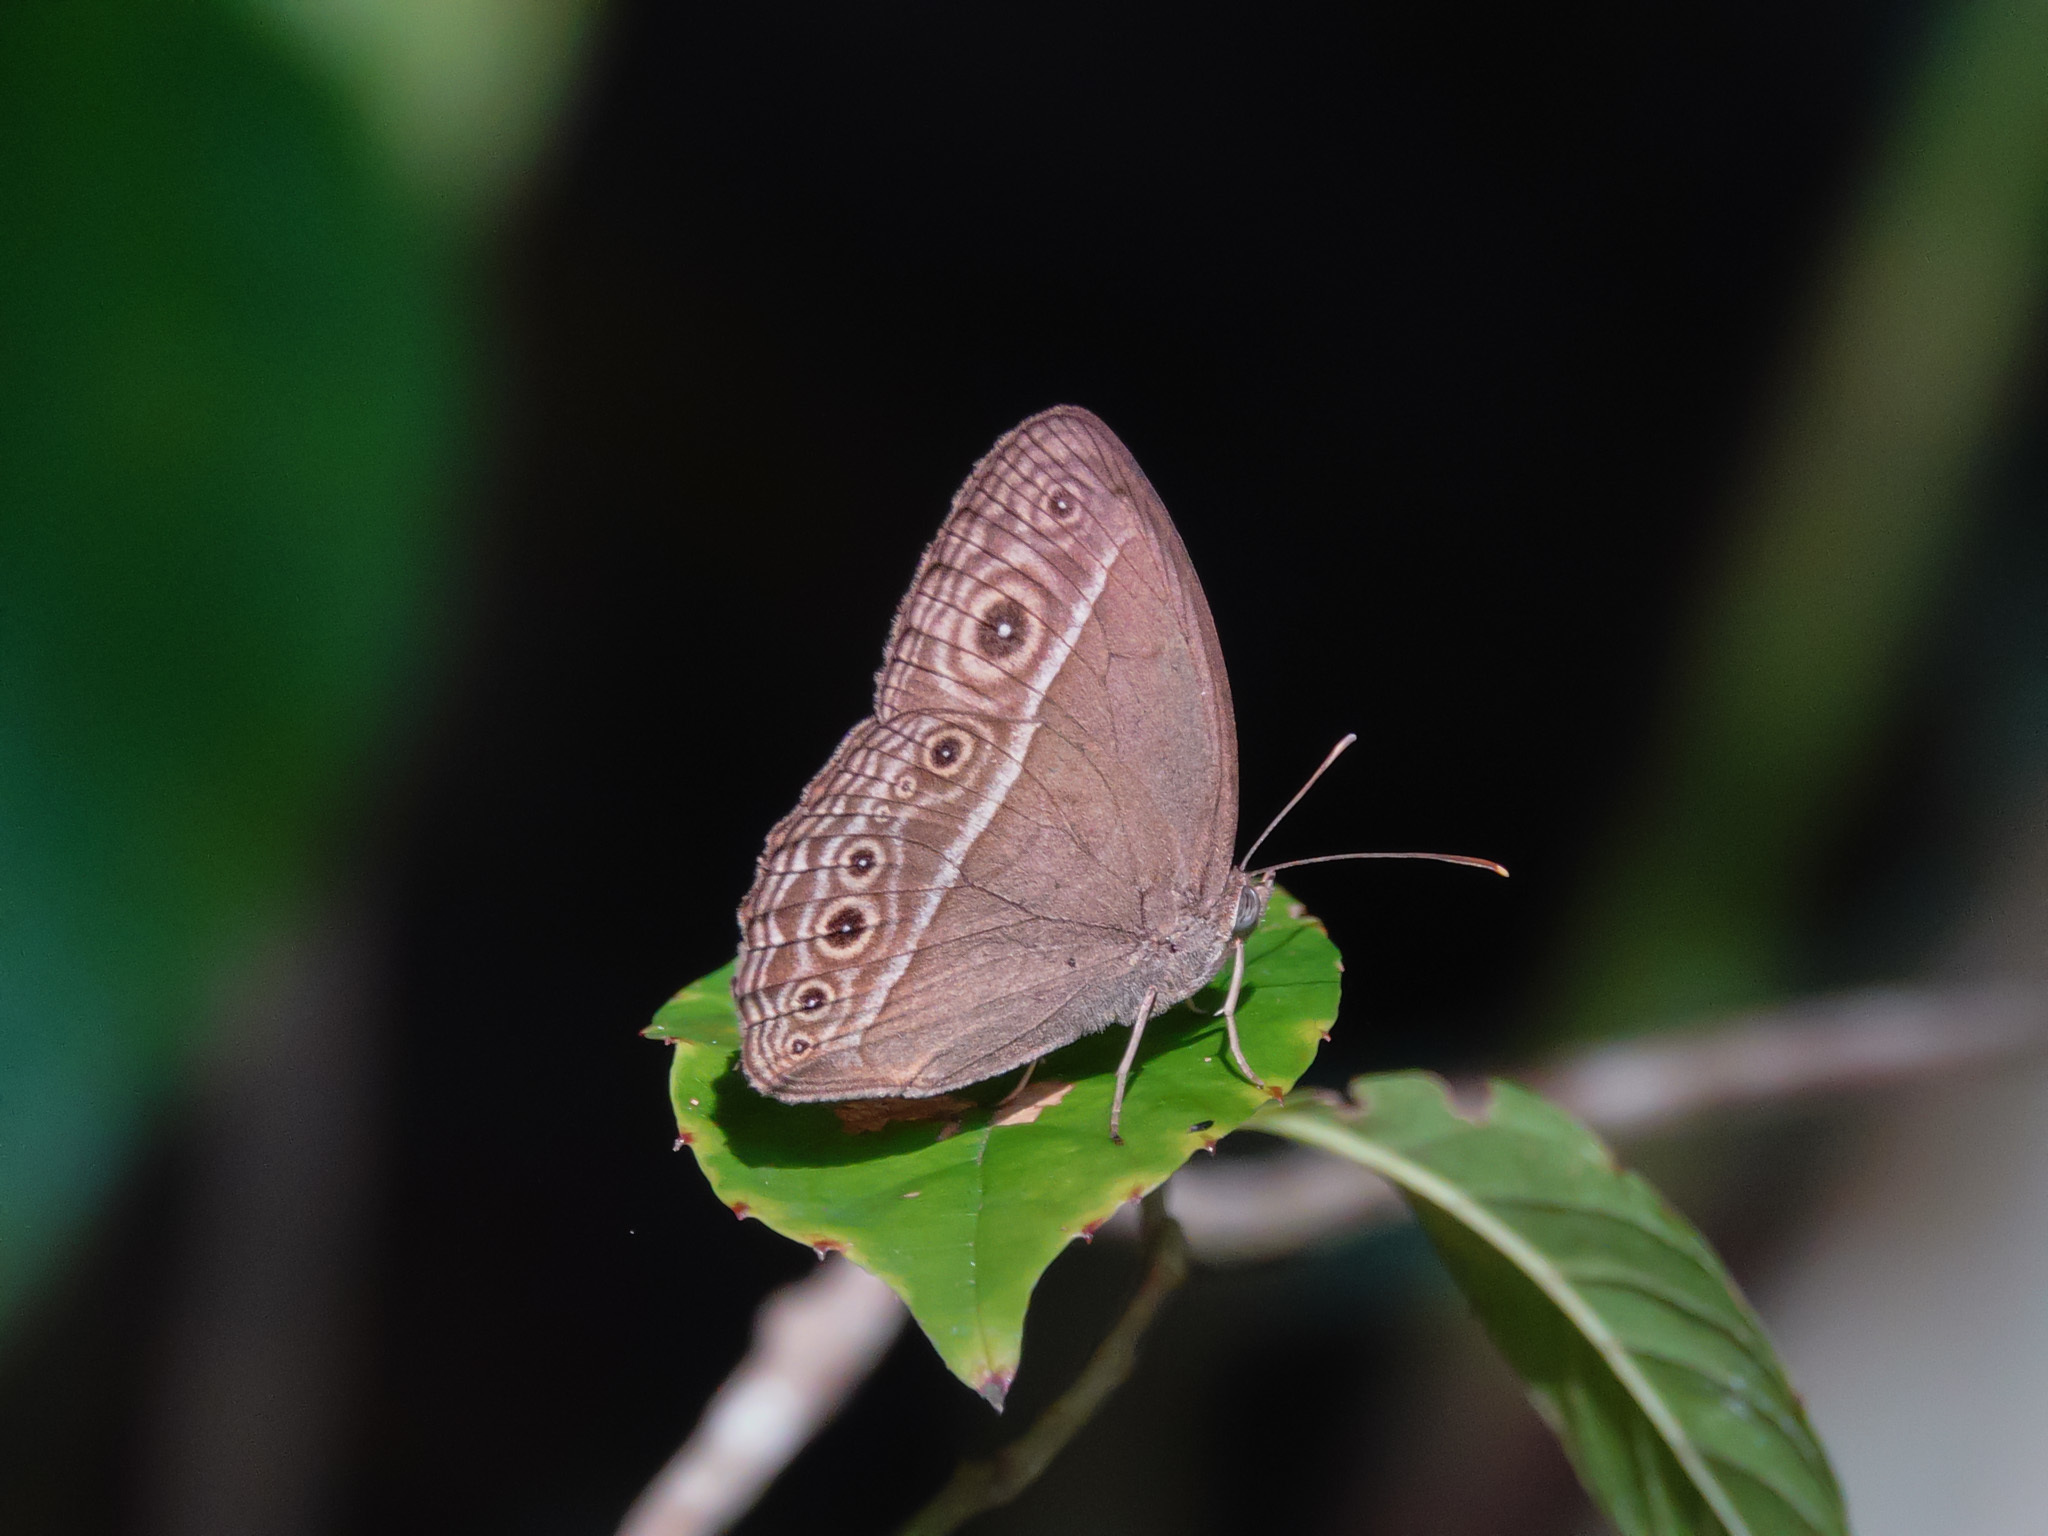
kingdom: Animalia
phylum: Arthropoda
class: Insecta
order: Lepidoptera
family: Nymphalidae
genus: Mycalesis
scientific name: Mycalesis visala
